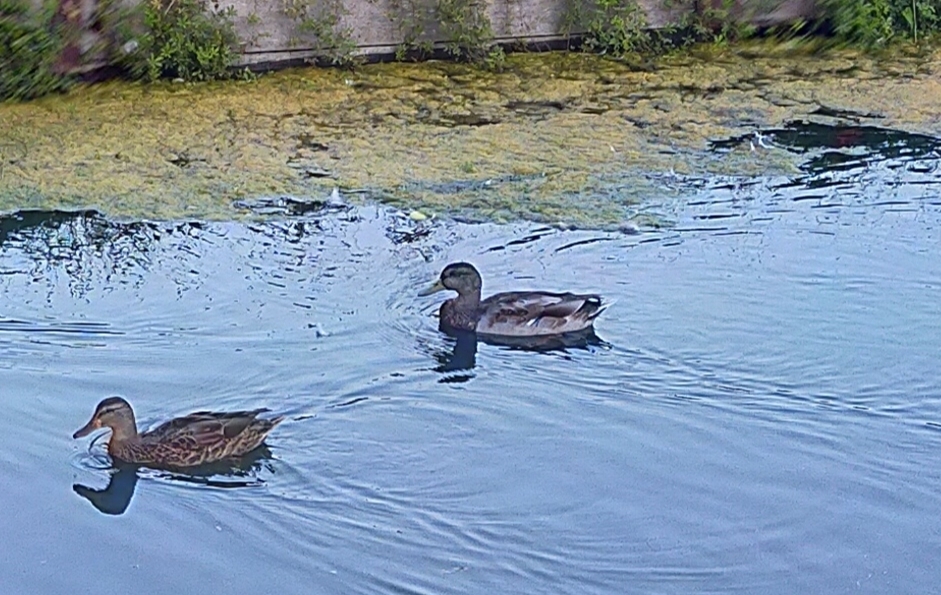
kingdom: Animalia
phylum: Chordata
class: Aves
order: Anseriformes
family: Anatidae
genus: Anas
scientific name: Anas platyrhynchos
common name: Mallard
